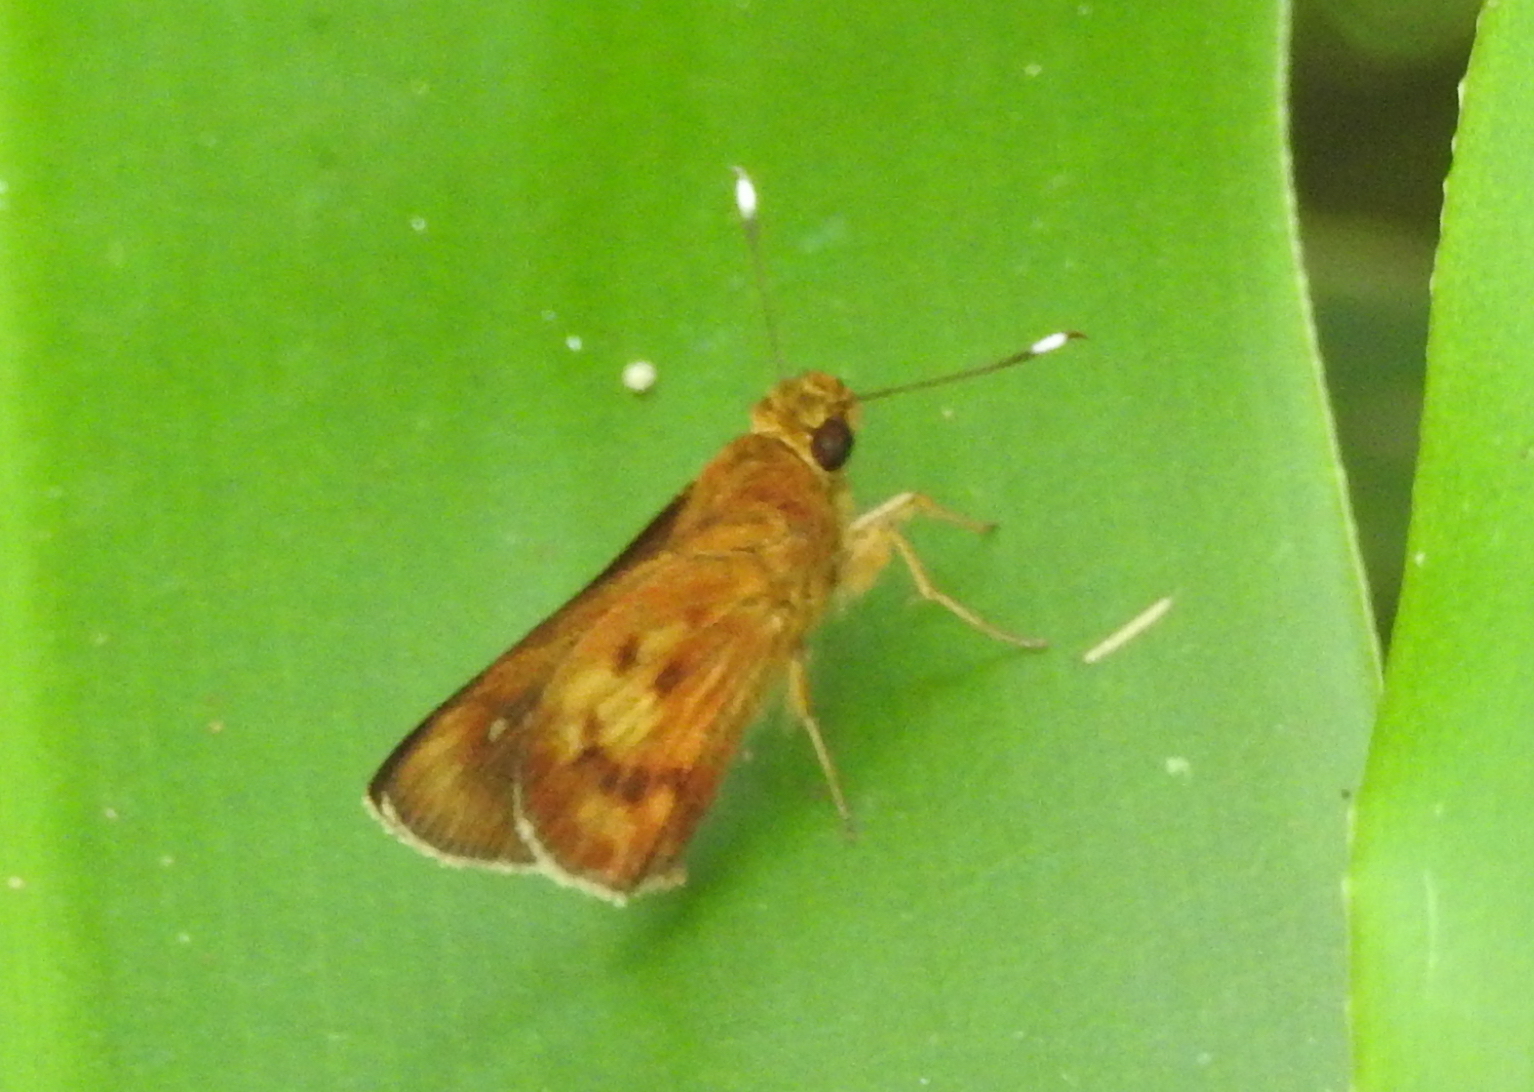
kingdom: Animalia
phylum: Arthropoda
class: Insecta
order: Lepidoptera
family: Hesperiidae
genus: Zographetus
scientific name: Zographetus doxus
